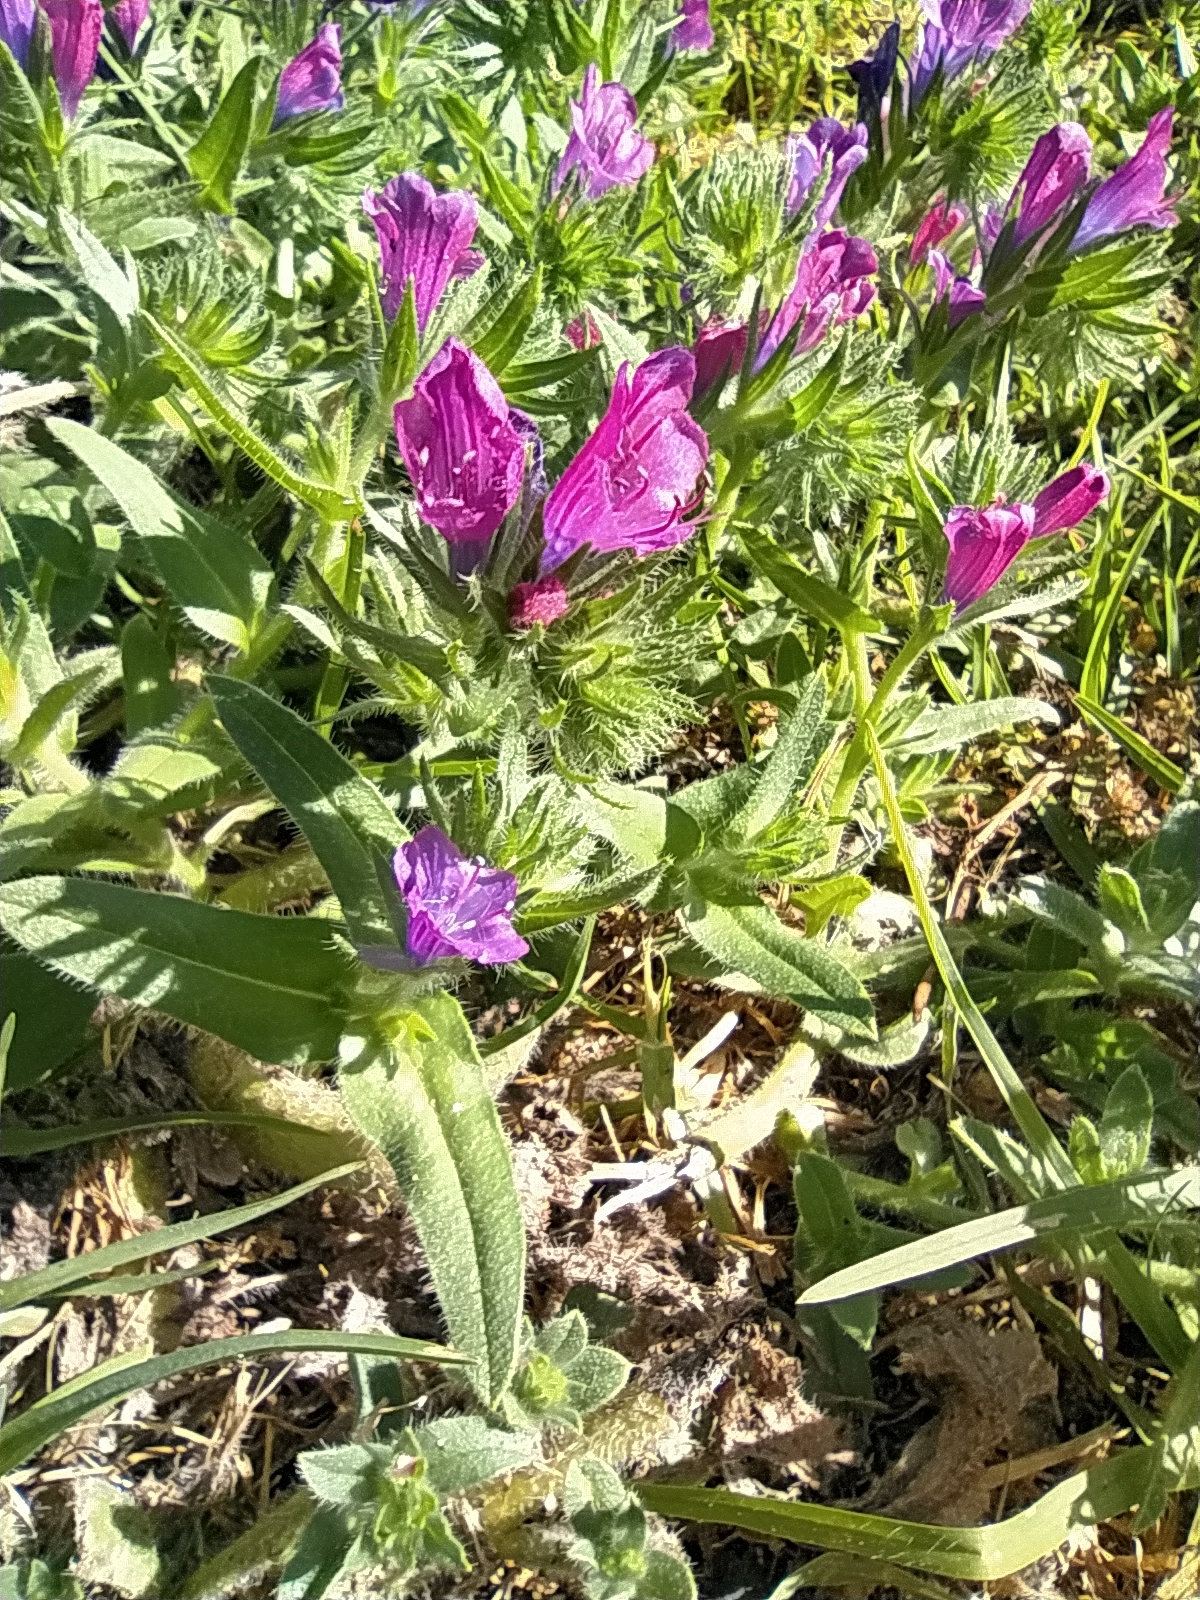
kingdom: Plantae
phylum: Tracheophyta
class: Magnoliopsida
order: Boraginales
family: Boraginaceae
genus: Echium
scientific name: Echium plantagineum
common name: Purple viper's-bugloss
